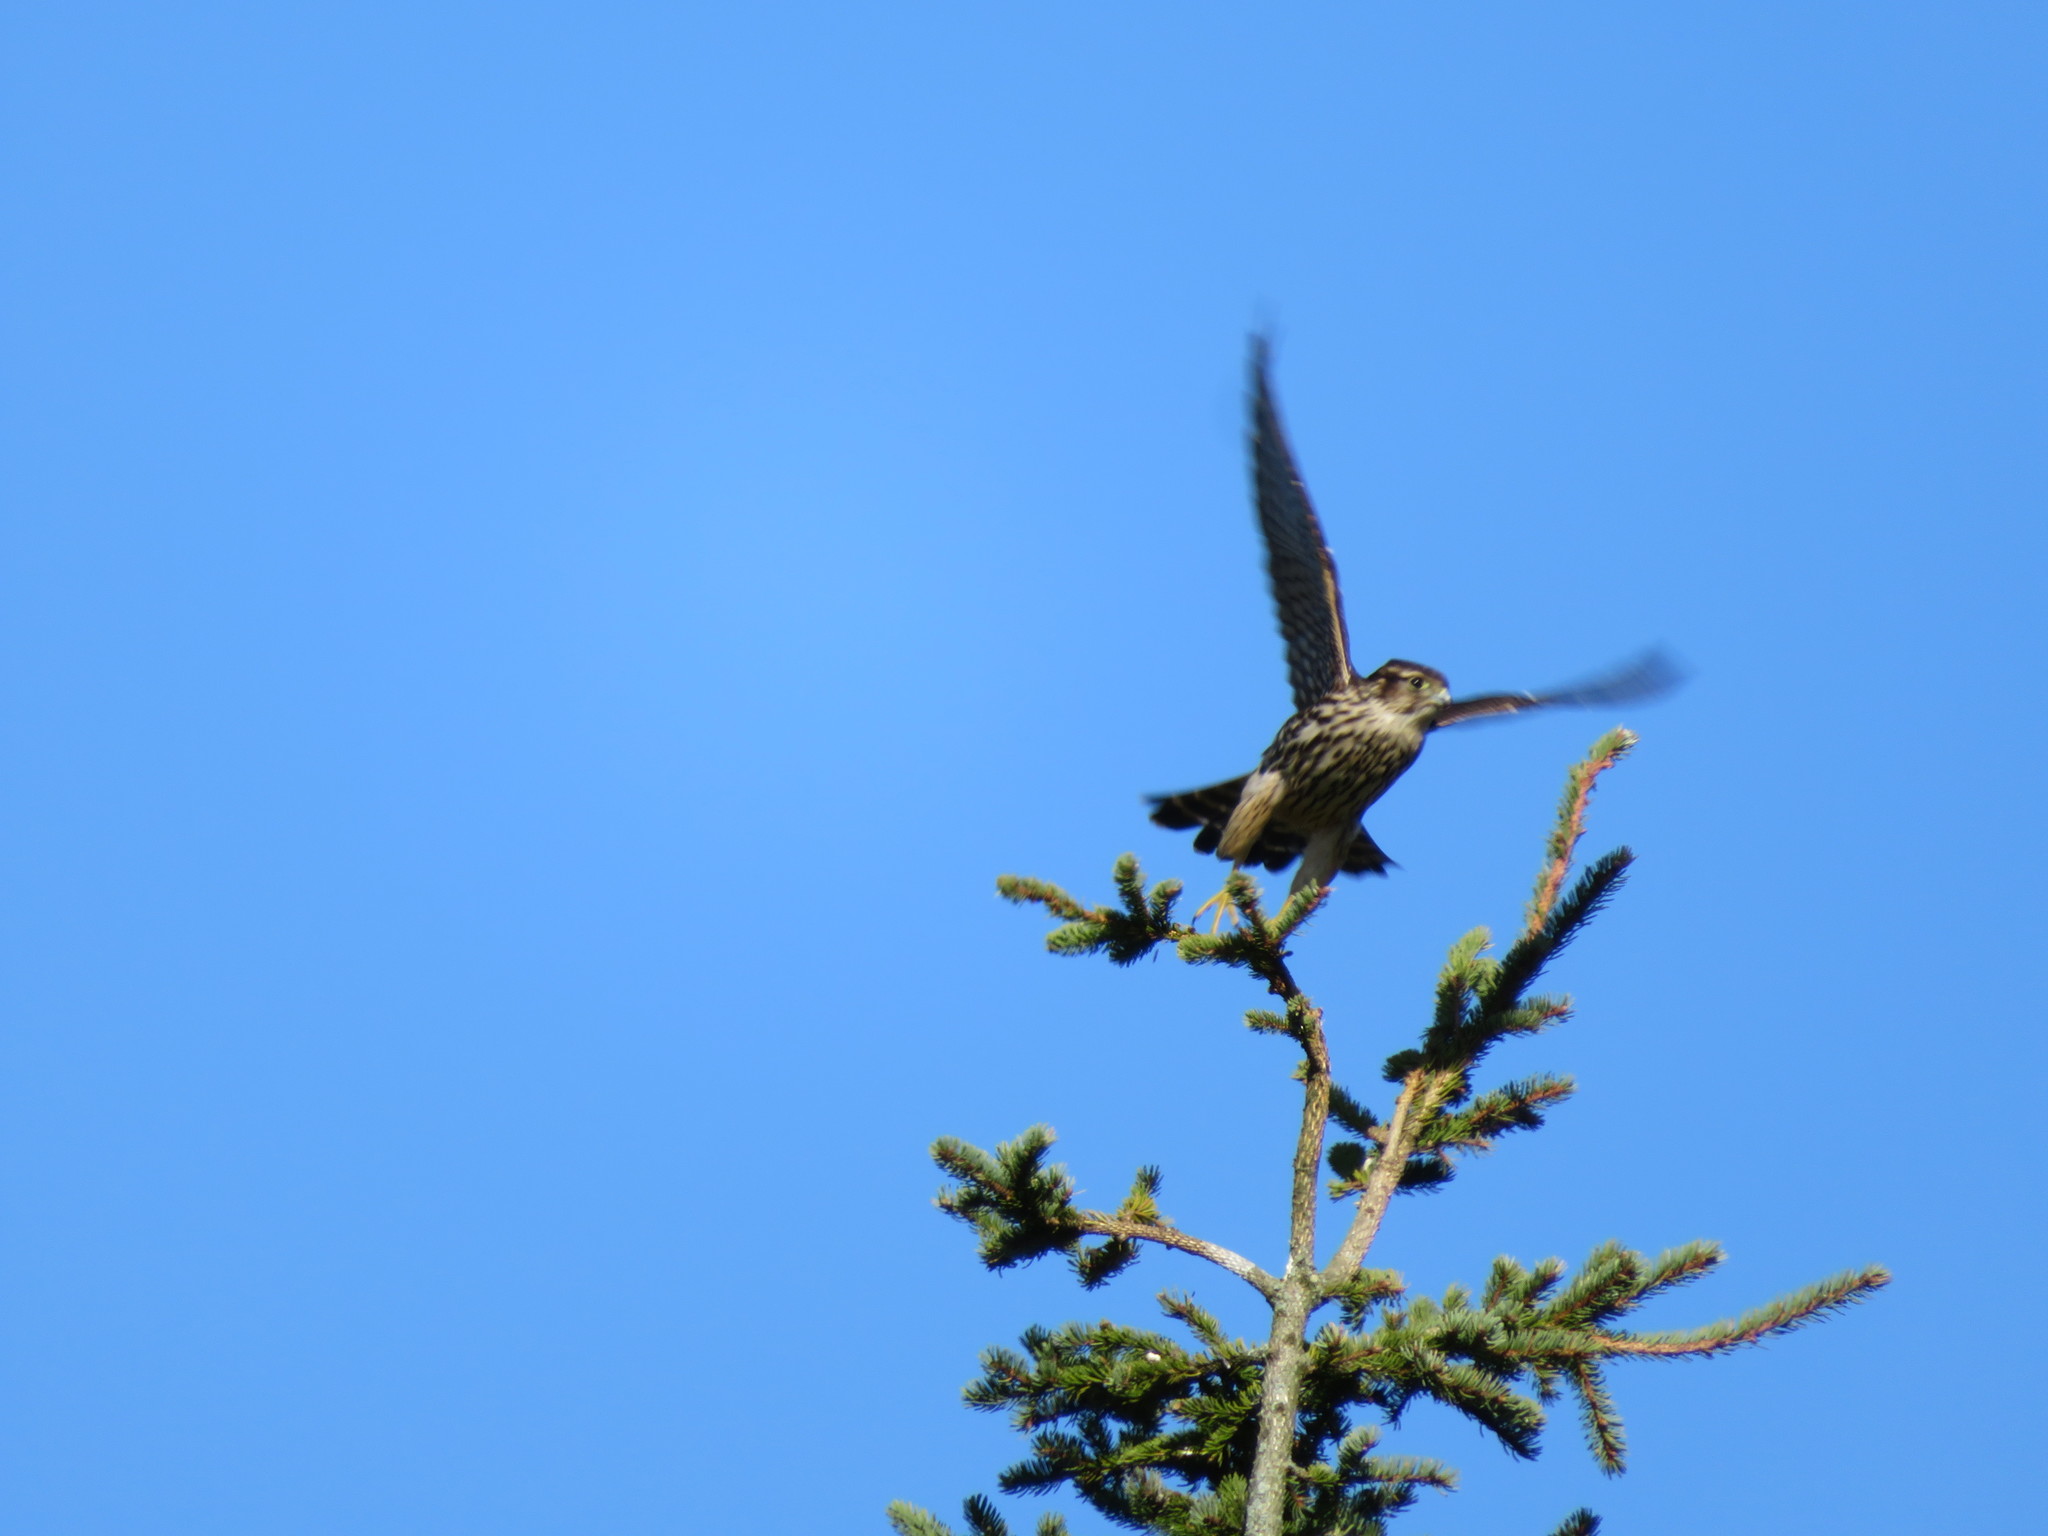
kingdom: Animalia
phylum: Chordata
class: Aves
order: Falconiformes
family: Falconidae
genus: Falco
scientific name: Falco columbarius
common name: Merlin
